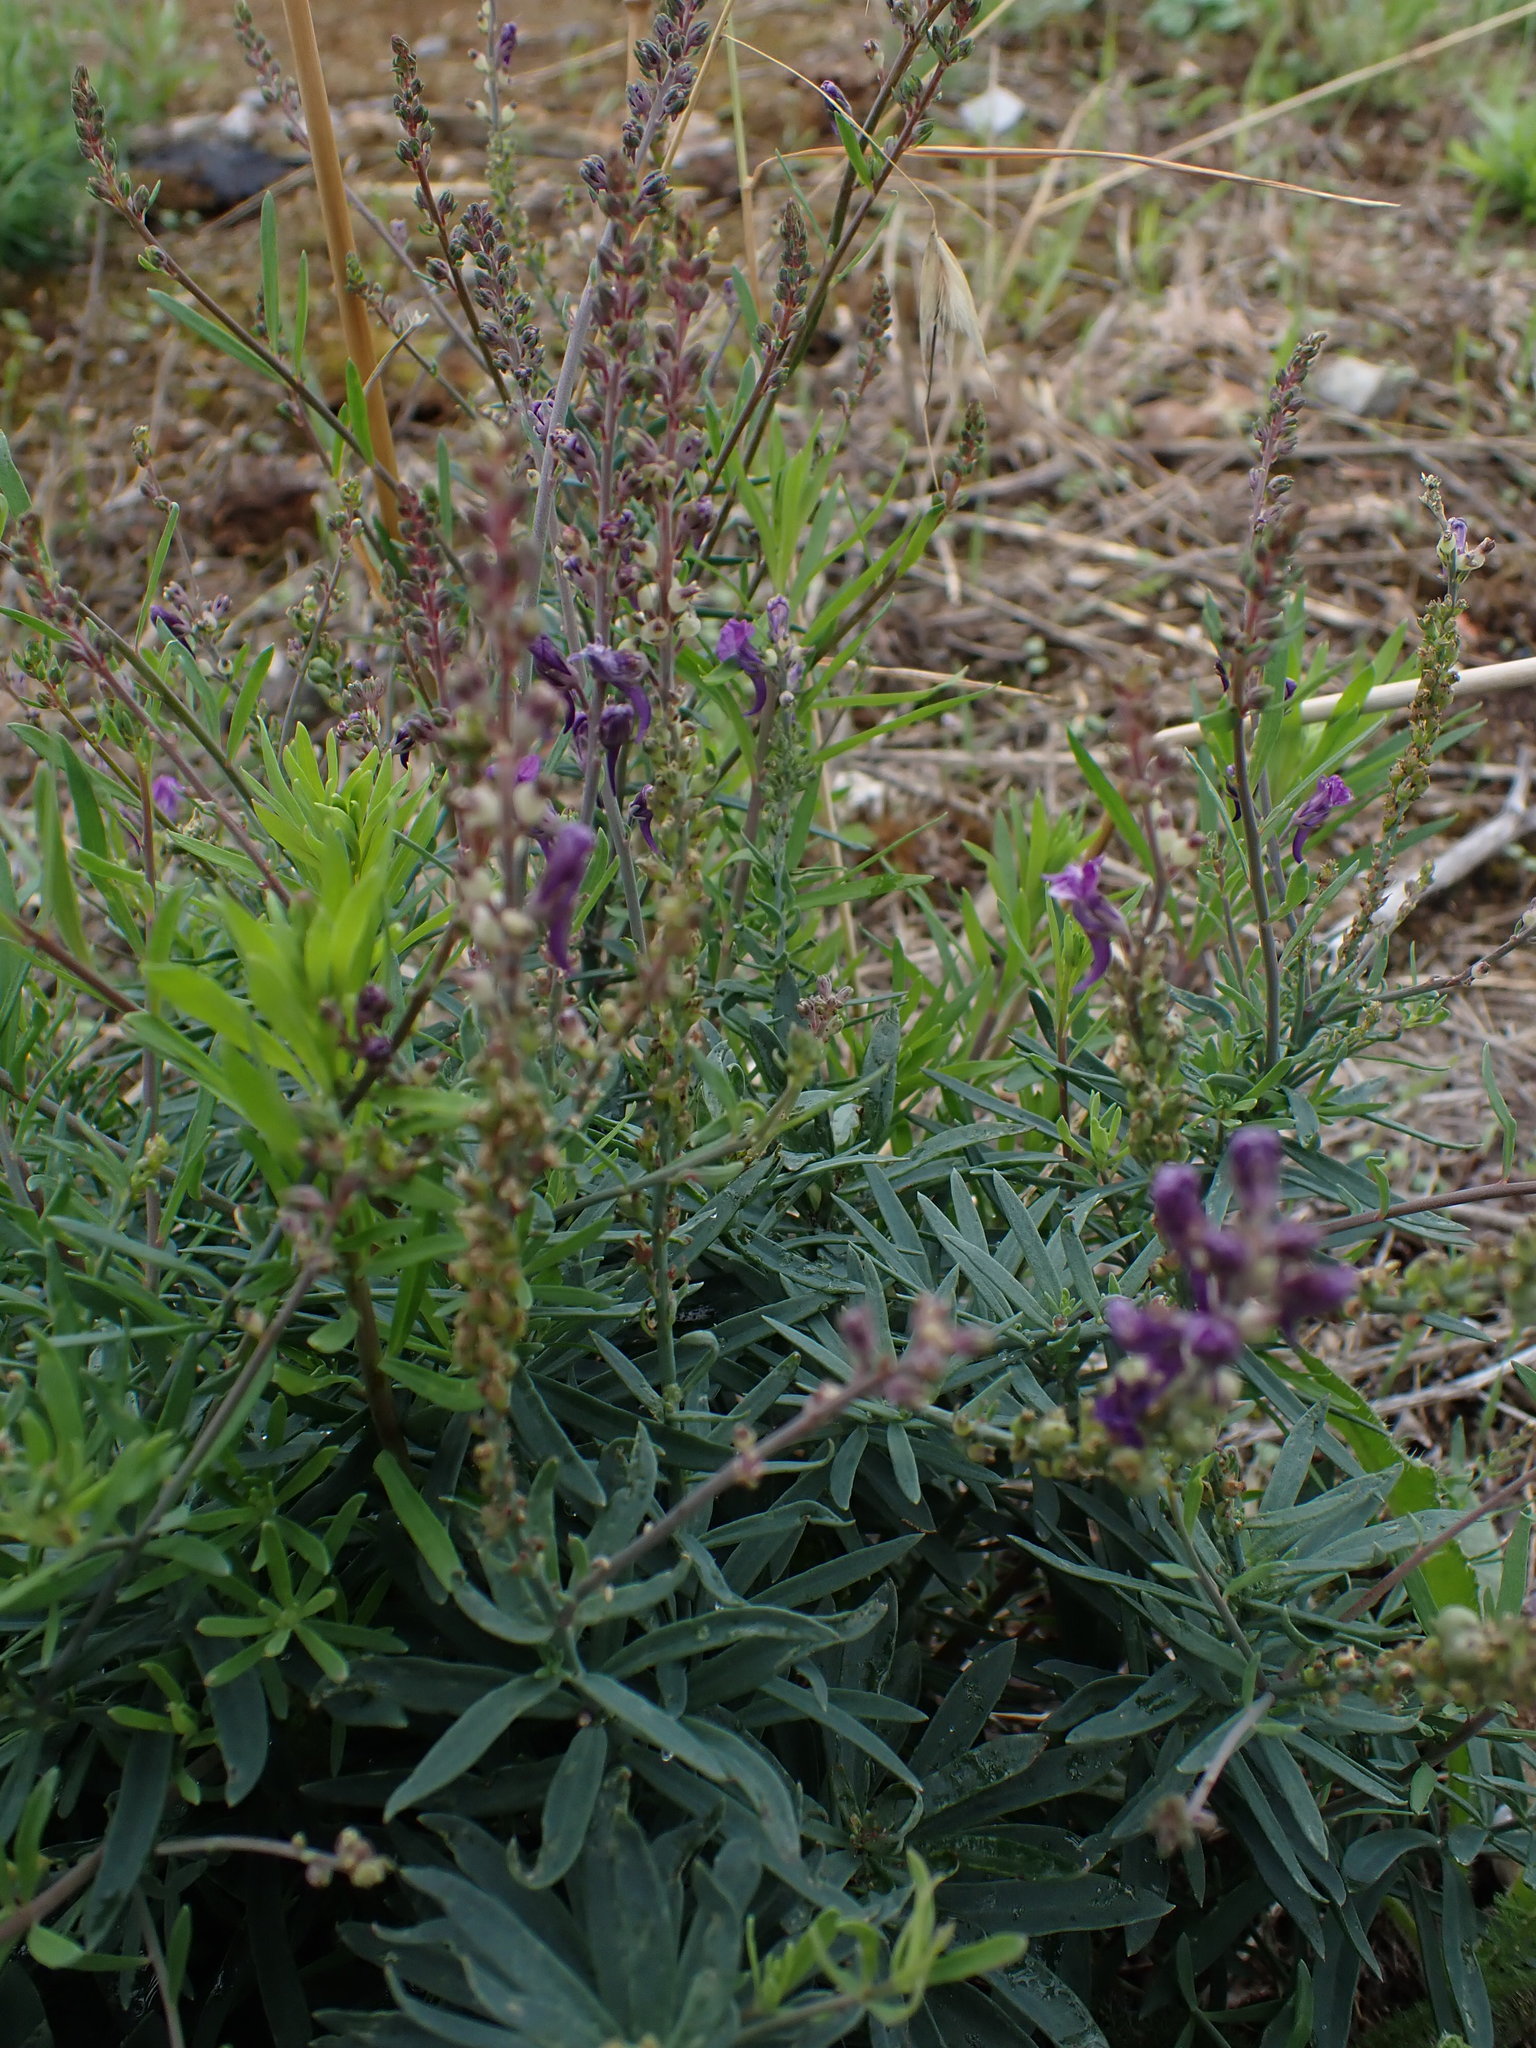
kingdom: Plantae
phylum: Tracheophyta
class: Magnoliopsida
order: Lamiales
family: Plantaginaceae
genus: Linaria
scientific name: Linaria purpurea
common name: Purple toadflax
